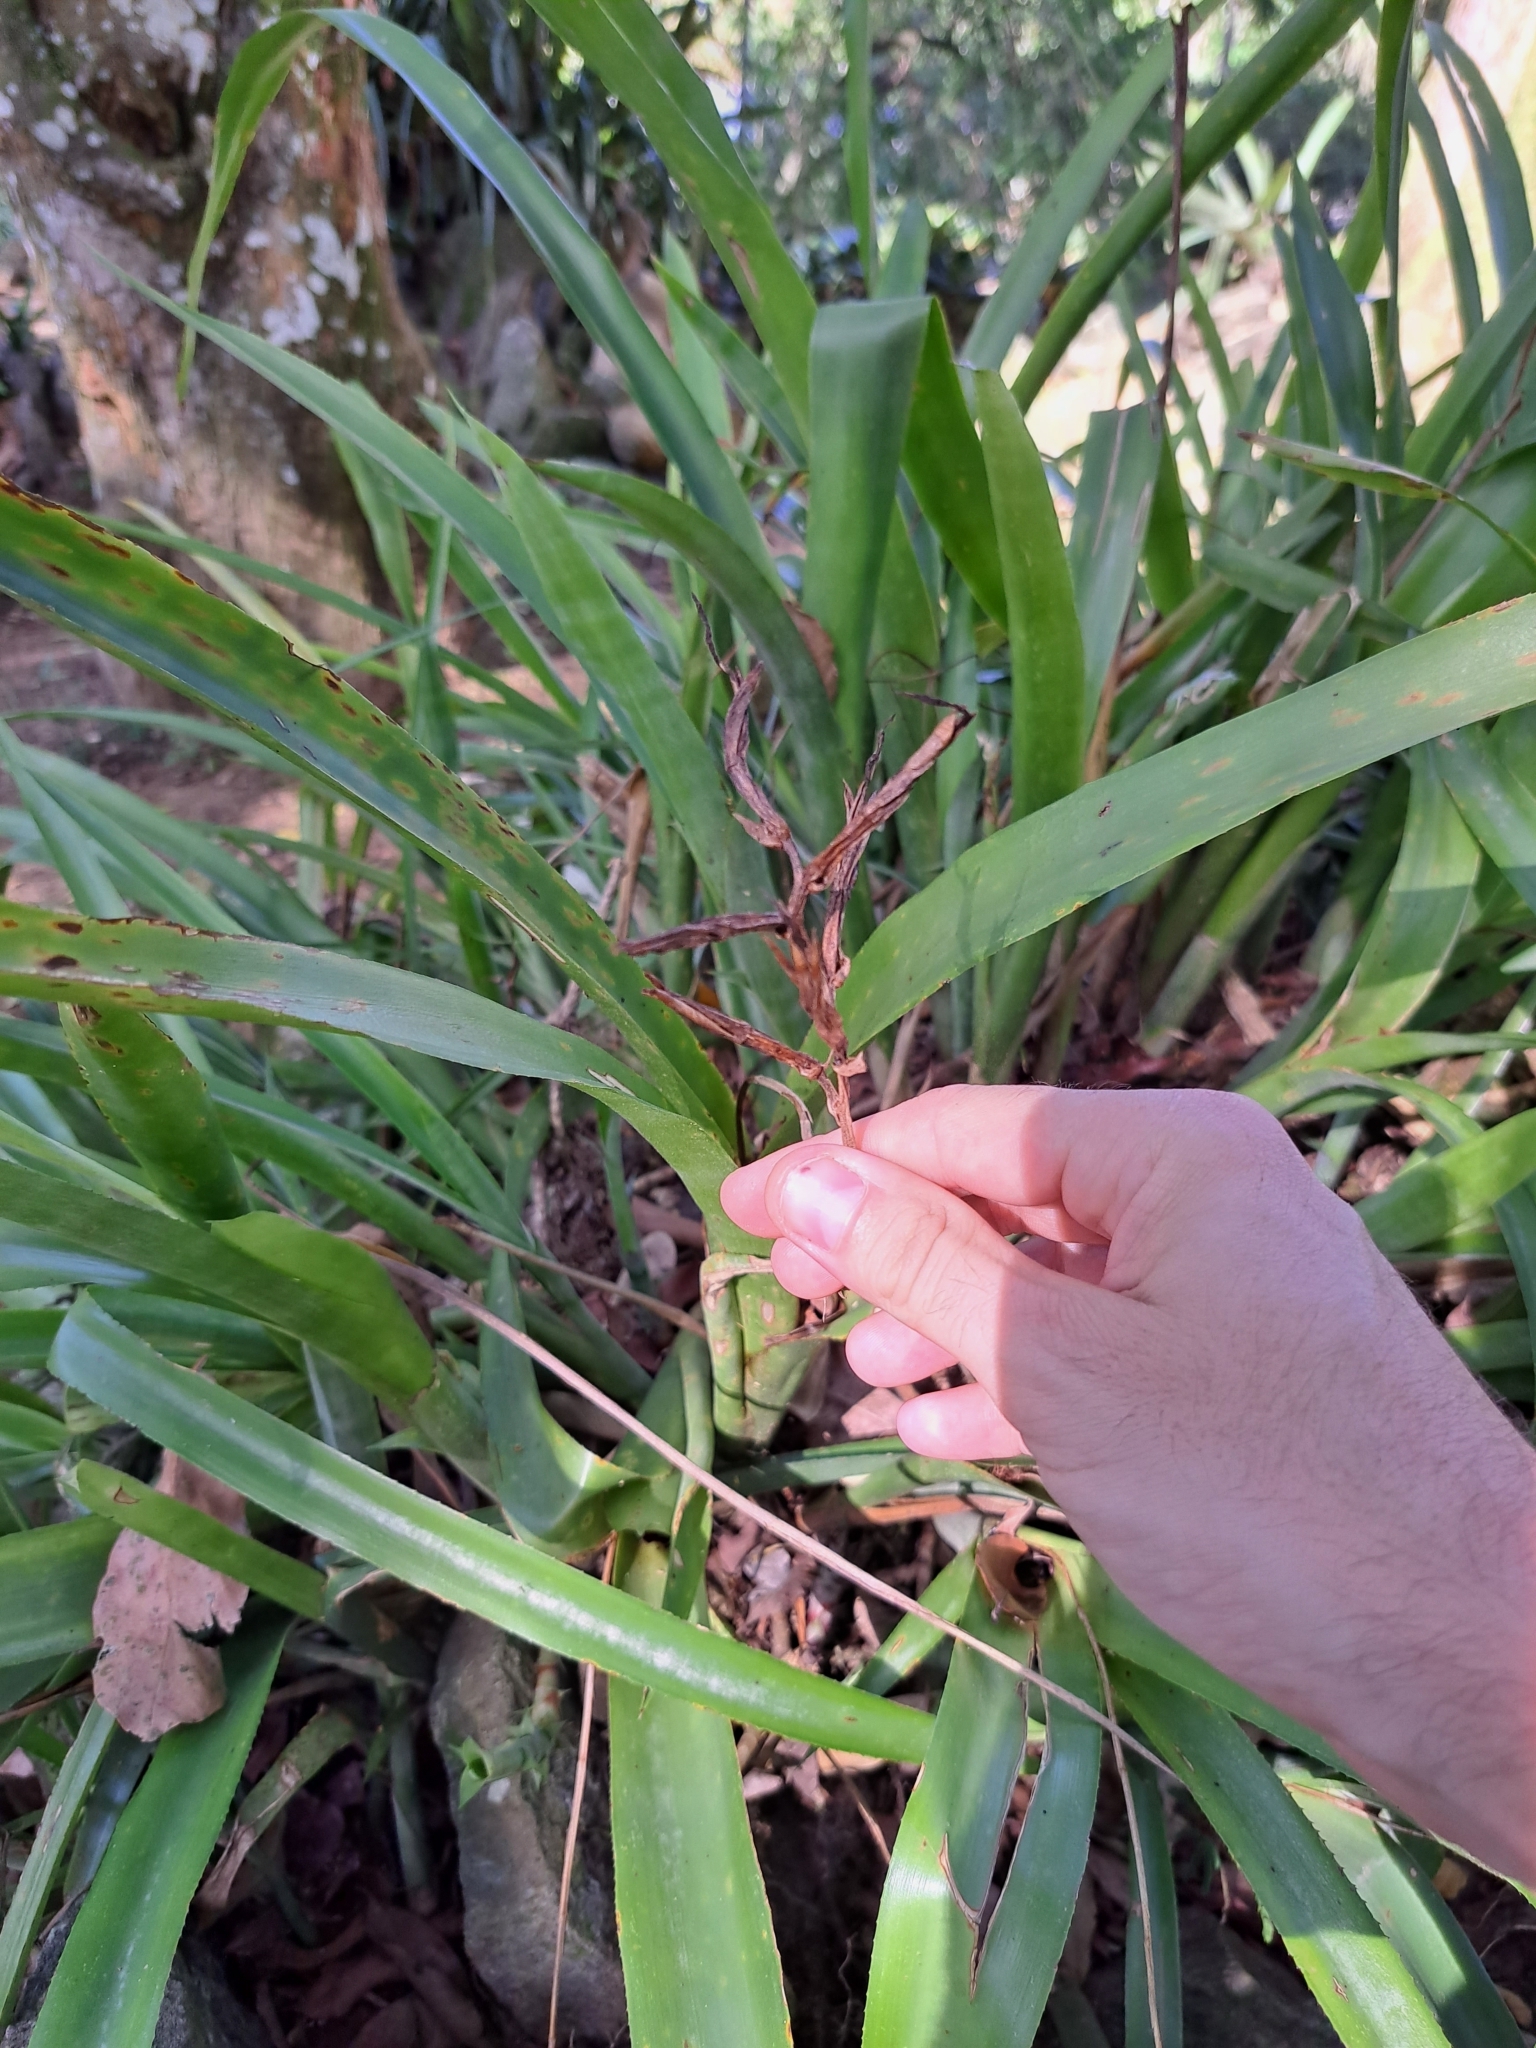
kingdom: Plantae
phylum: Tracheophyta
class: Liliopsida
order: Poales
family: Bromeliaceae
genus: Quesnelia
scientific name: Quesnelia liboniana
